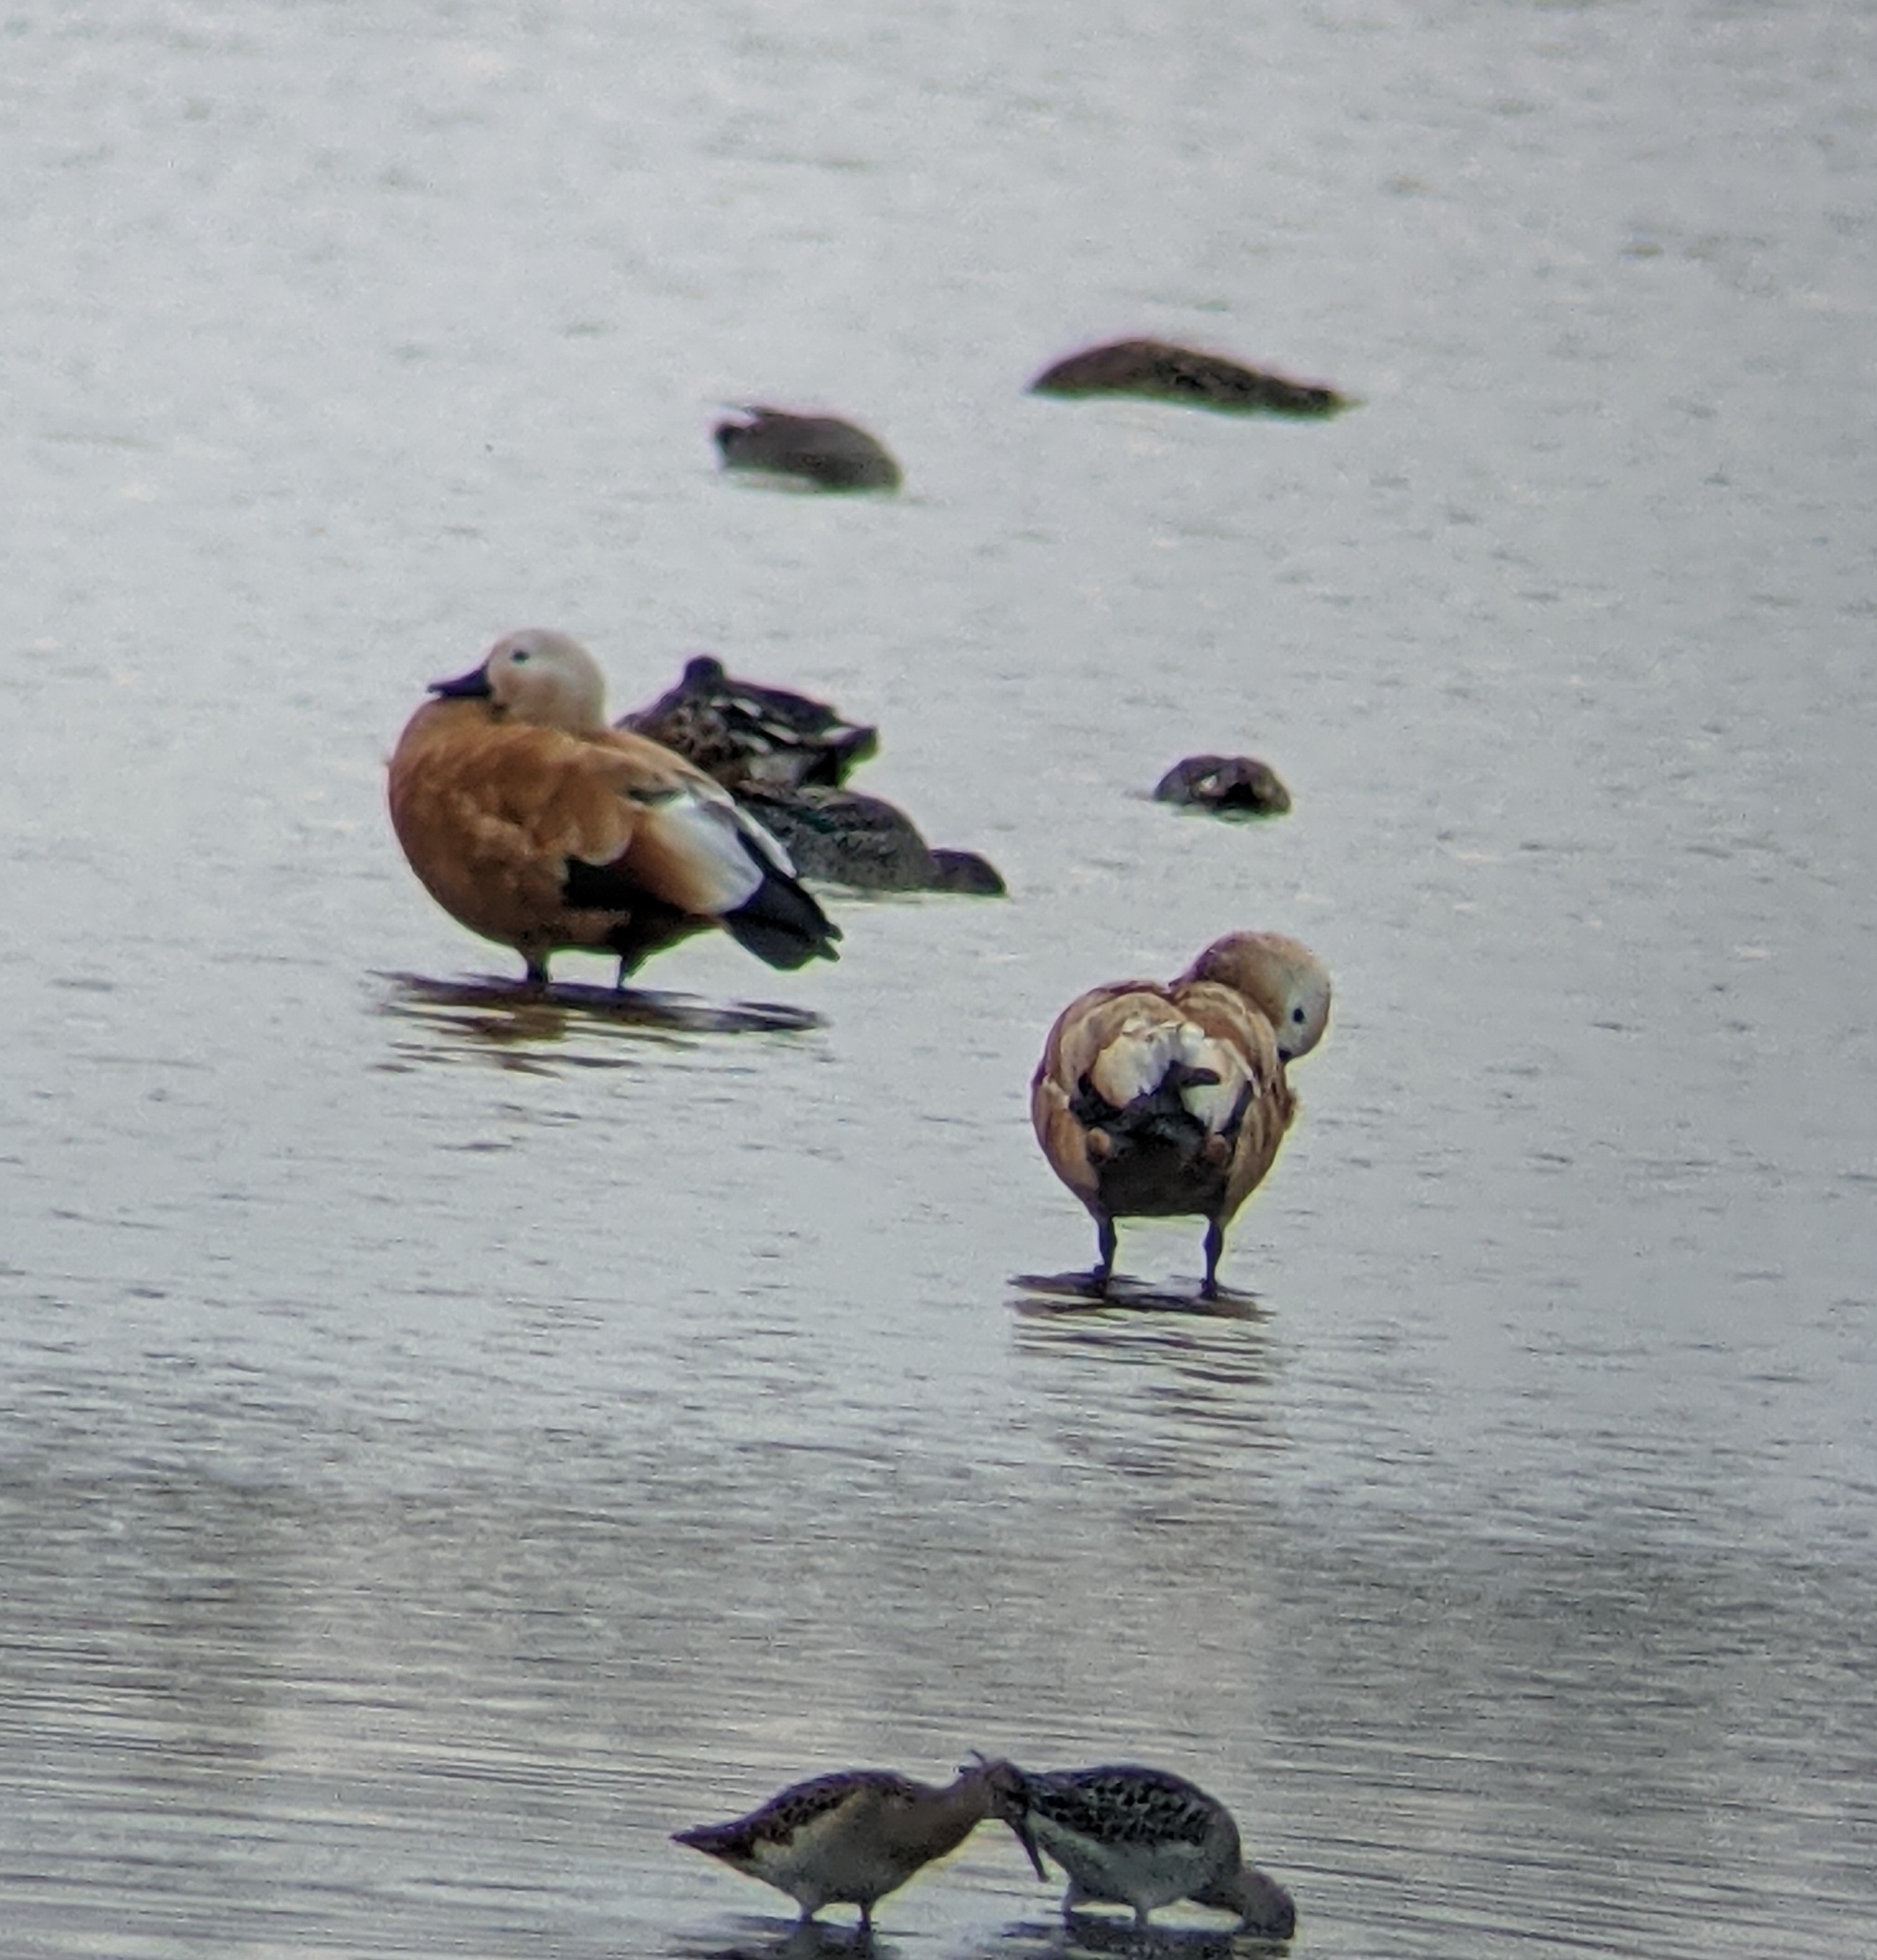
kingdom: Animalia
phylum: Chordata
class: Aves
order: Anseriformes
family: Anatidae
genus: Tadorna
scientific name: Tadorna ferruginea
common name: Ruddy shelduck
